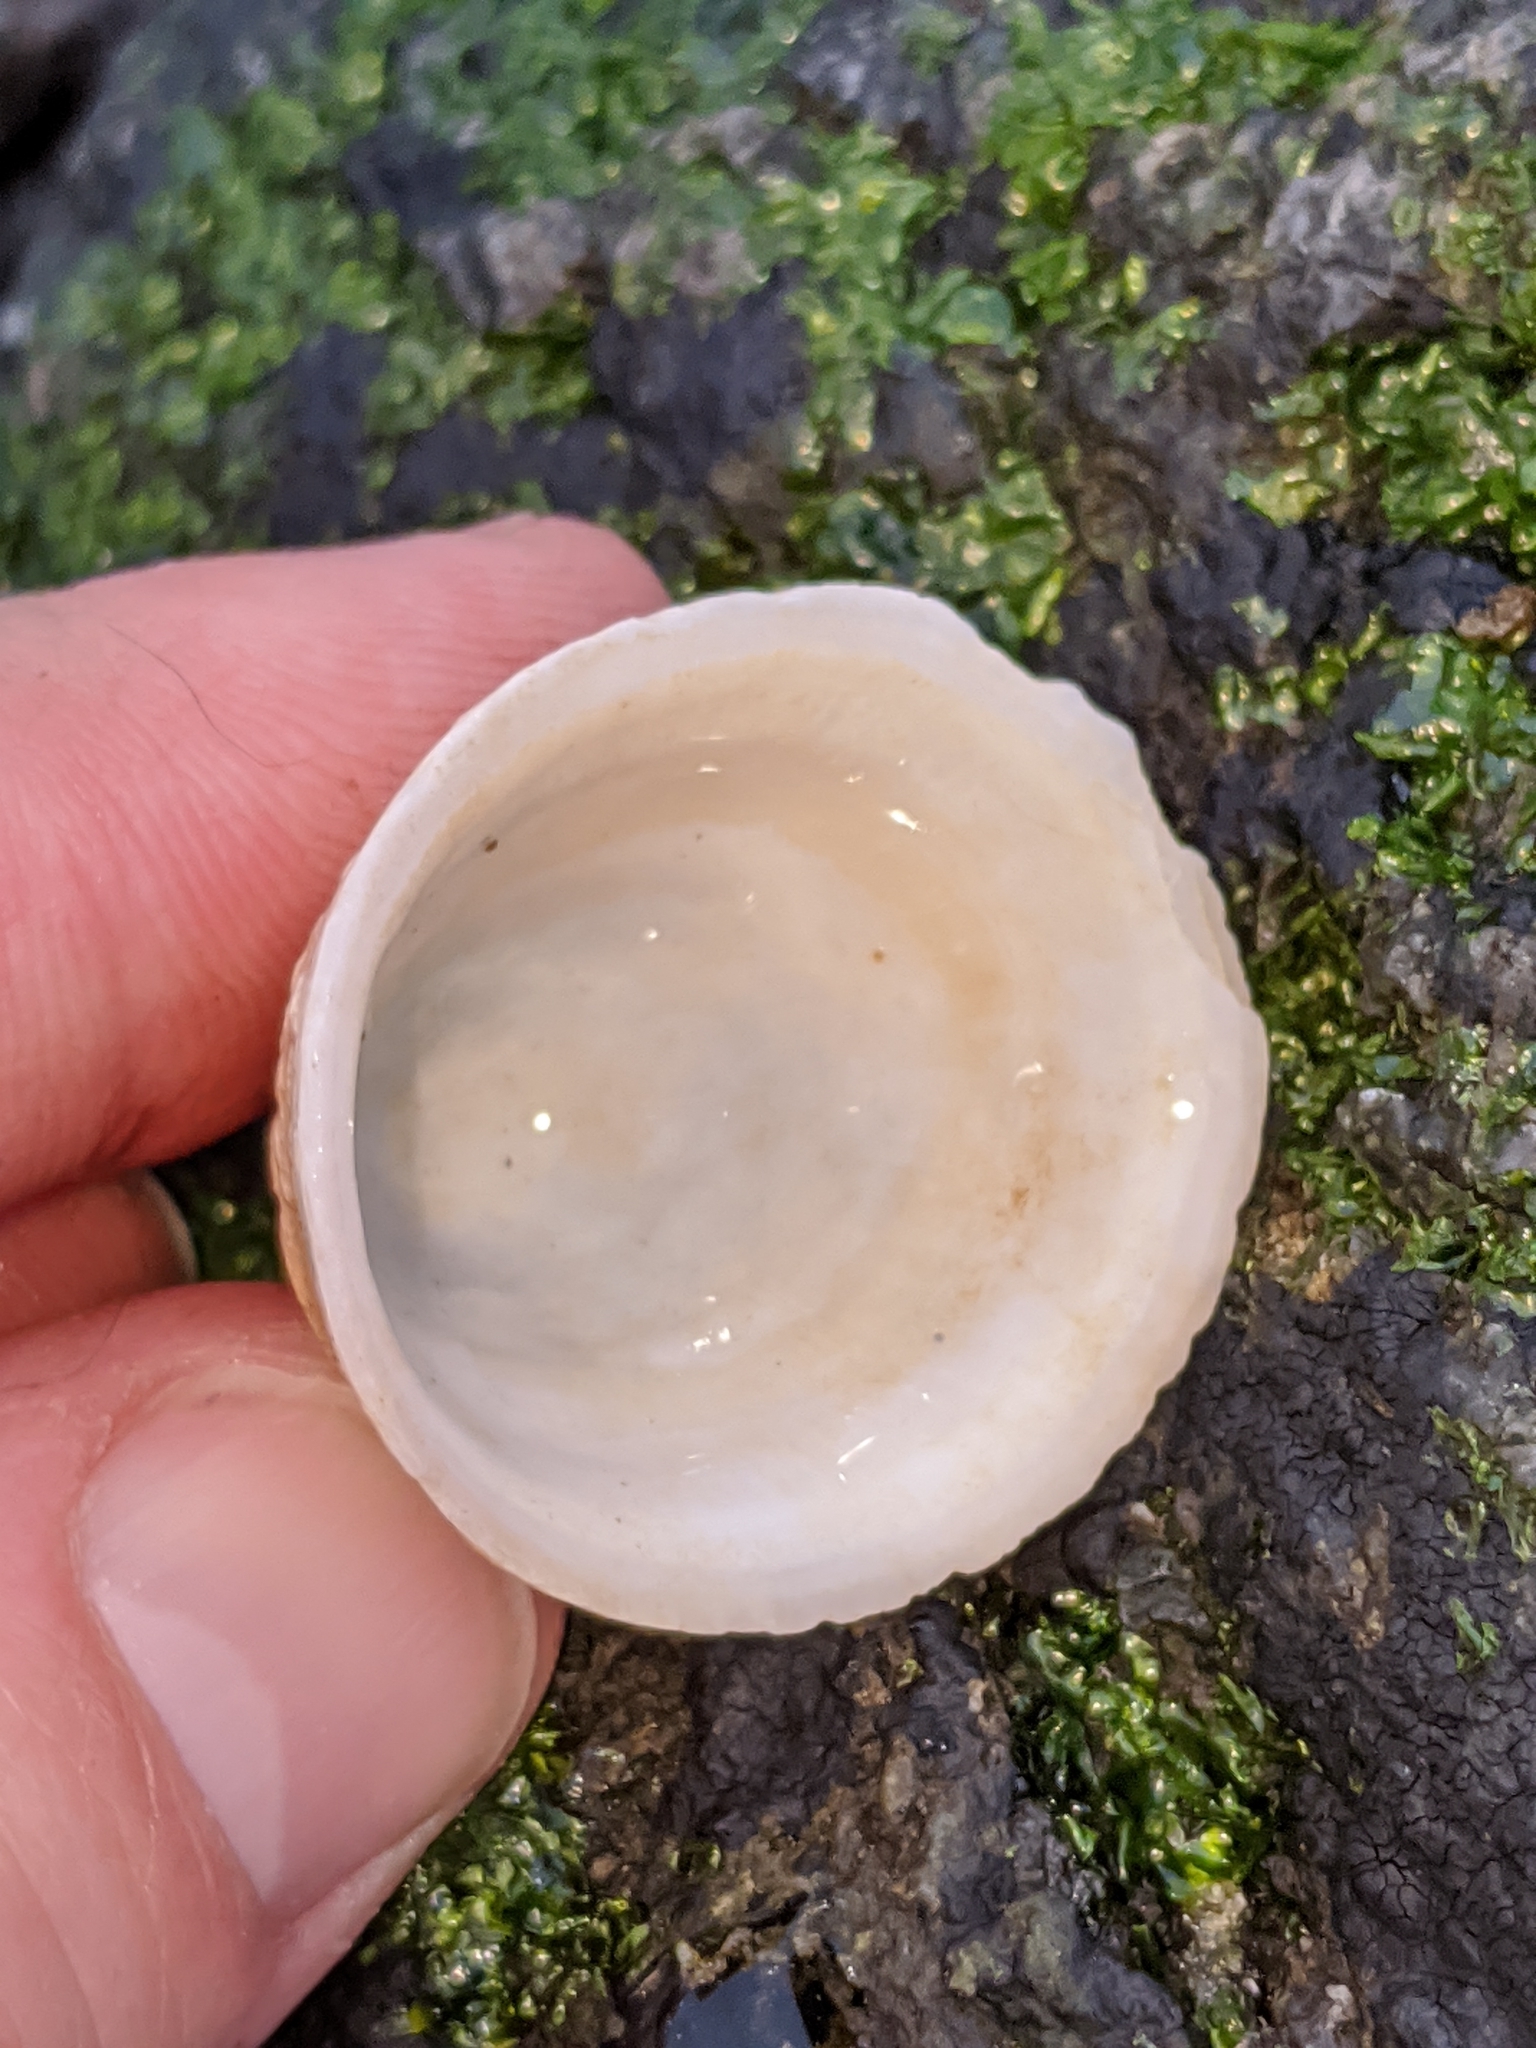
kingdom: Animalia
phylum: Mollusca
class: Gastropoda
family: Acmaeidae
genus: Acmaea
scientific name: Acmaea mitra
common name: Pacific white cap limpet
